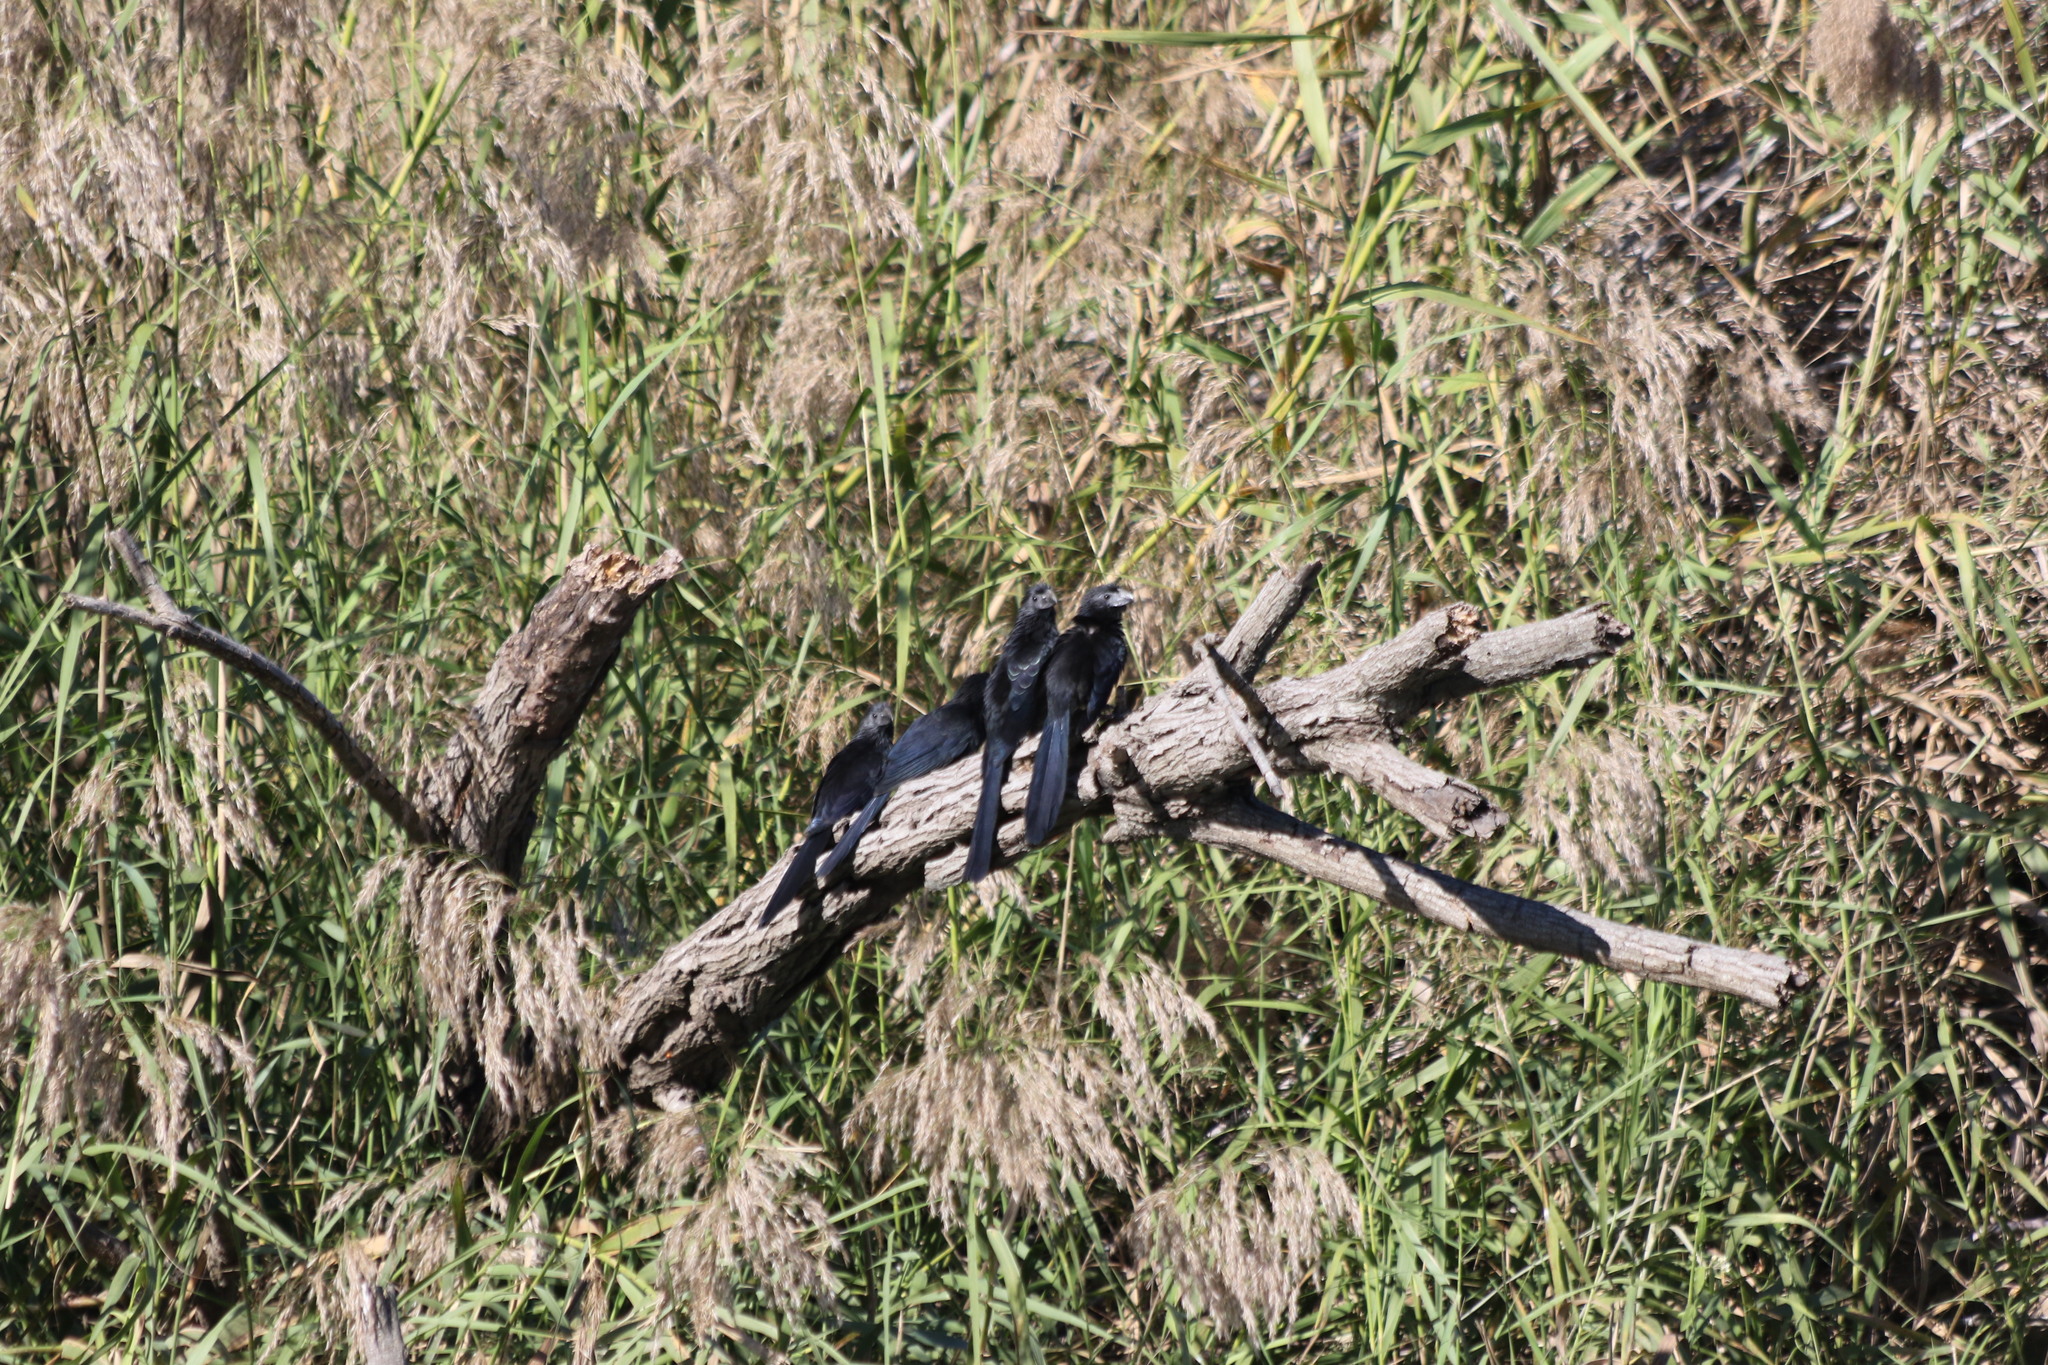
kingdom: Animalia
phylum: Chordata
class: Aves
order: Cuculiformes
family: Cuculidae
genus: Crotophaga
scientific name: Crotophaga sulcirostris
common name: Groove-billed ani
